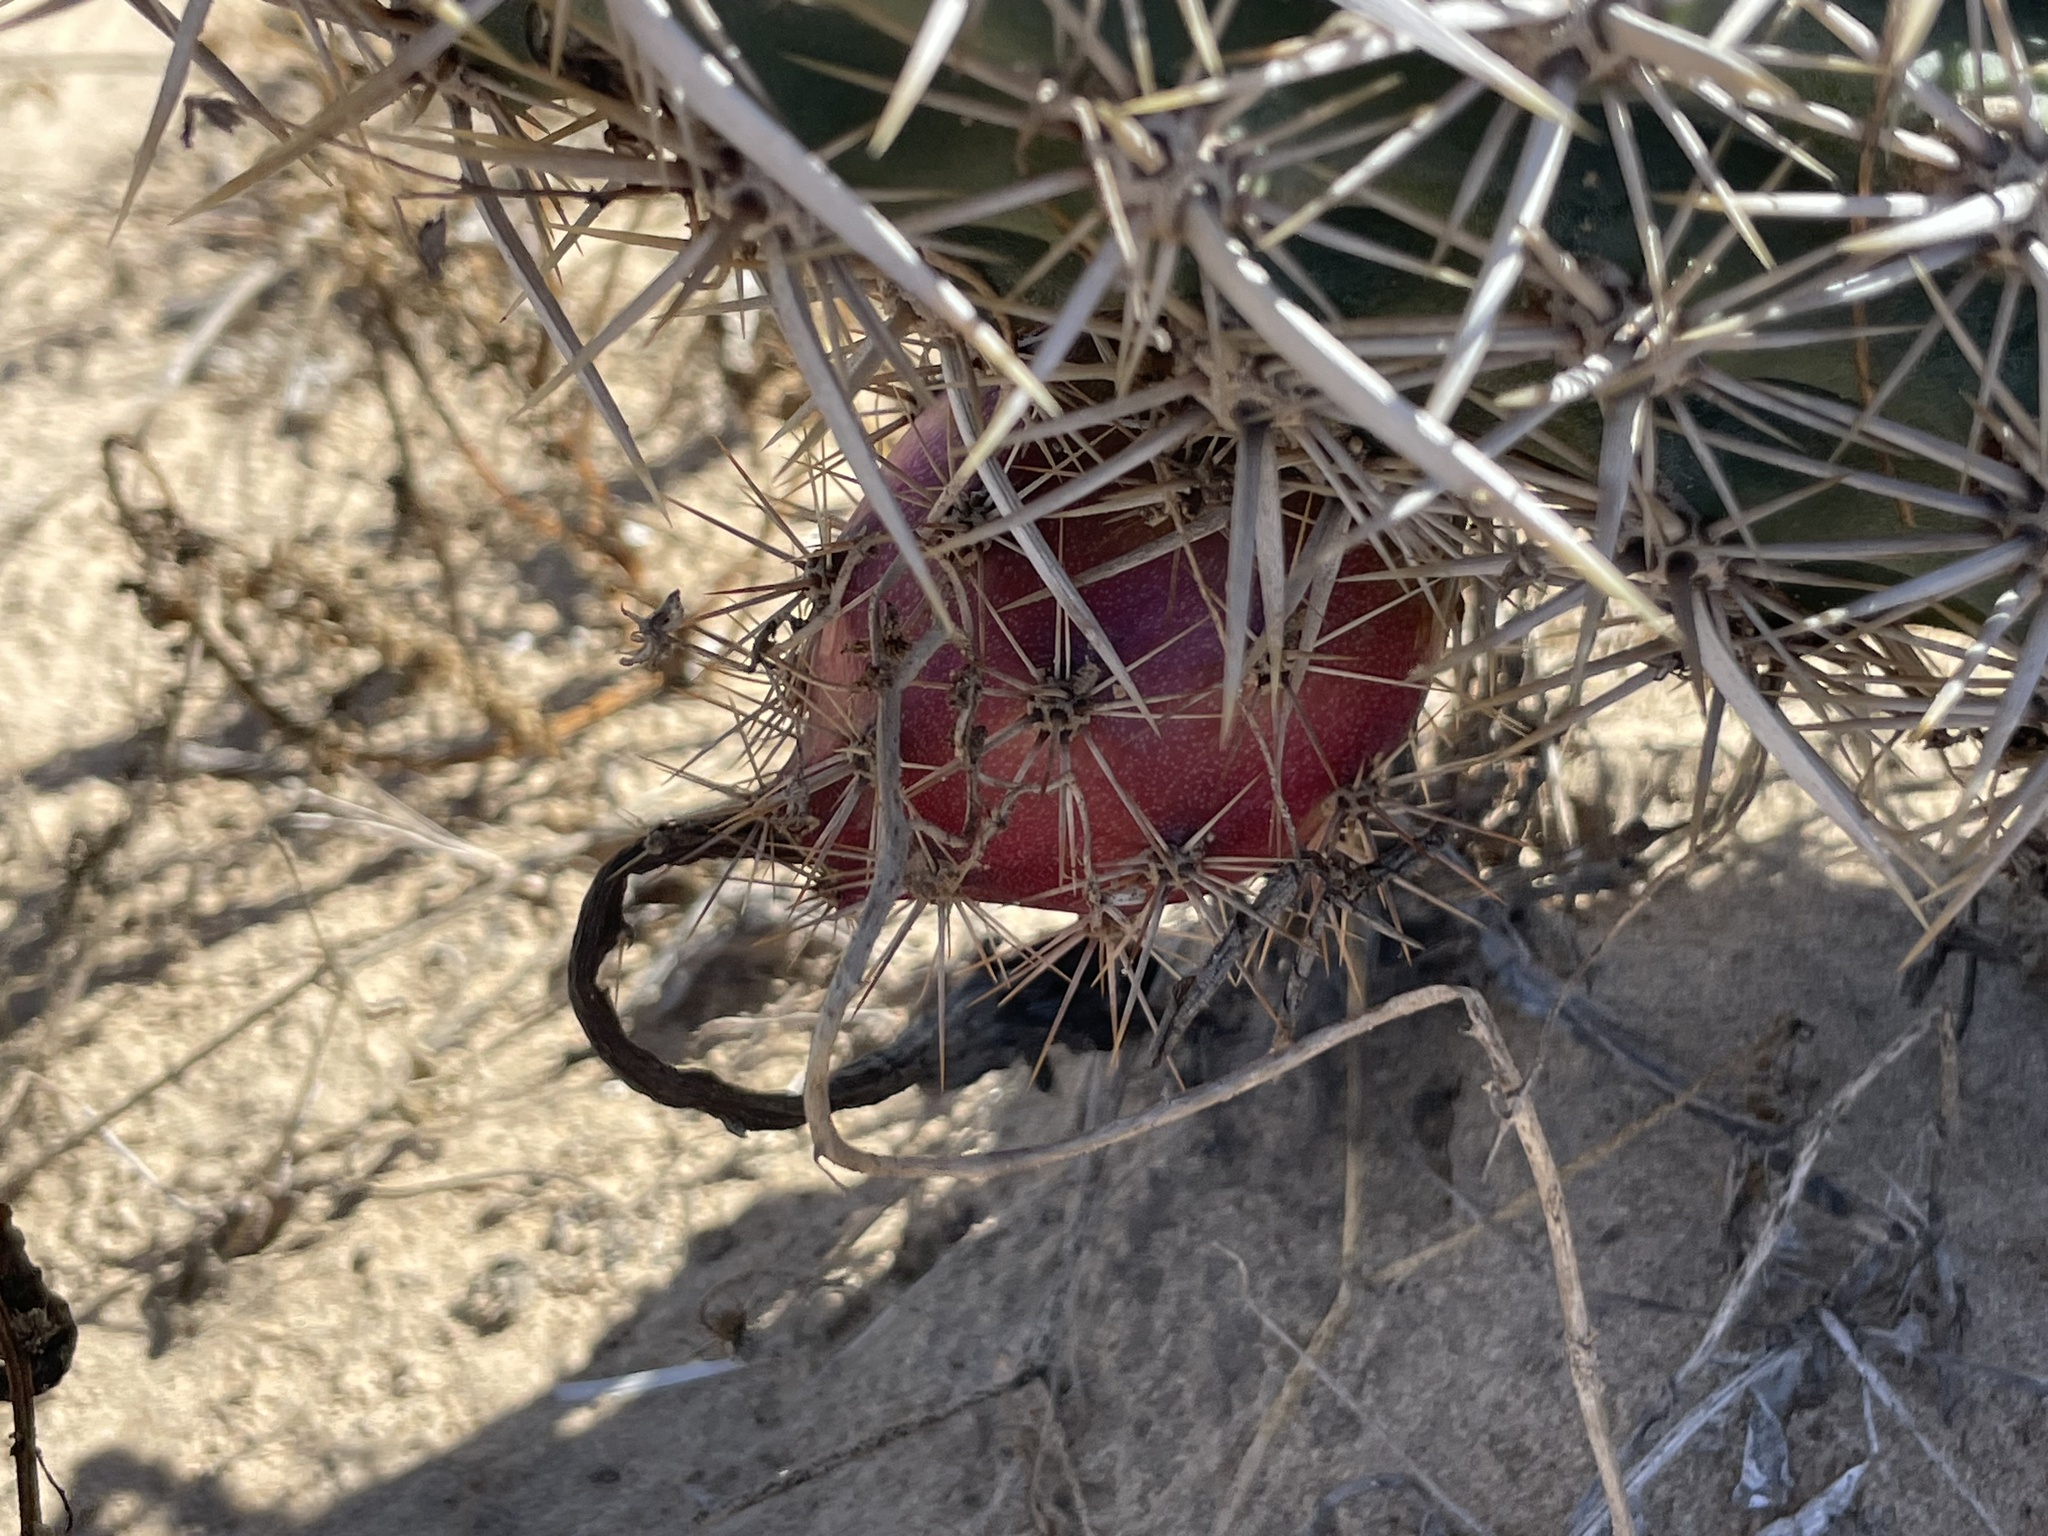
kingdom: Plantae
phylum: Tracheophyta
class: Magnoliopsida
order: Caryophyllales
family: Cactaceae
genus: Stenocereus
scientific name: Stenocereus eruca
